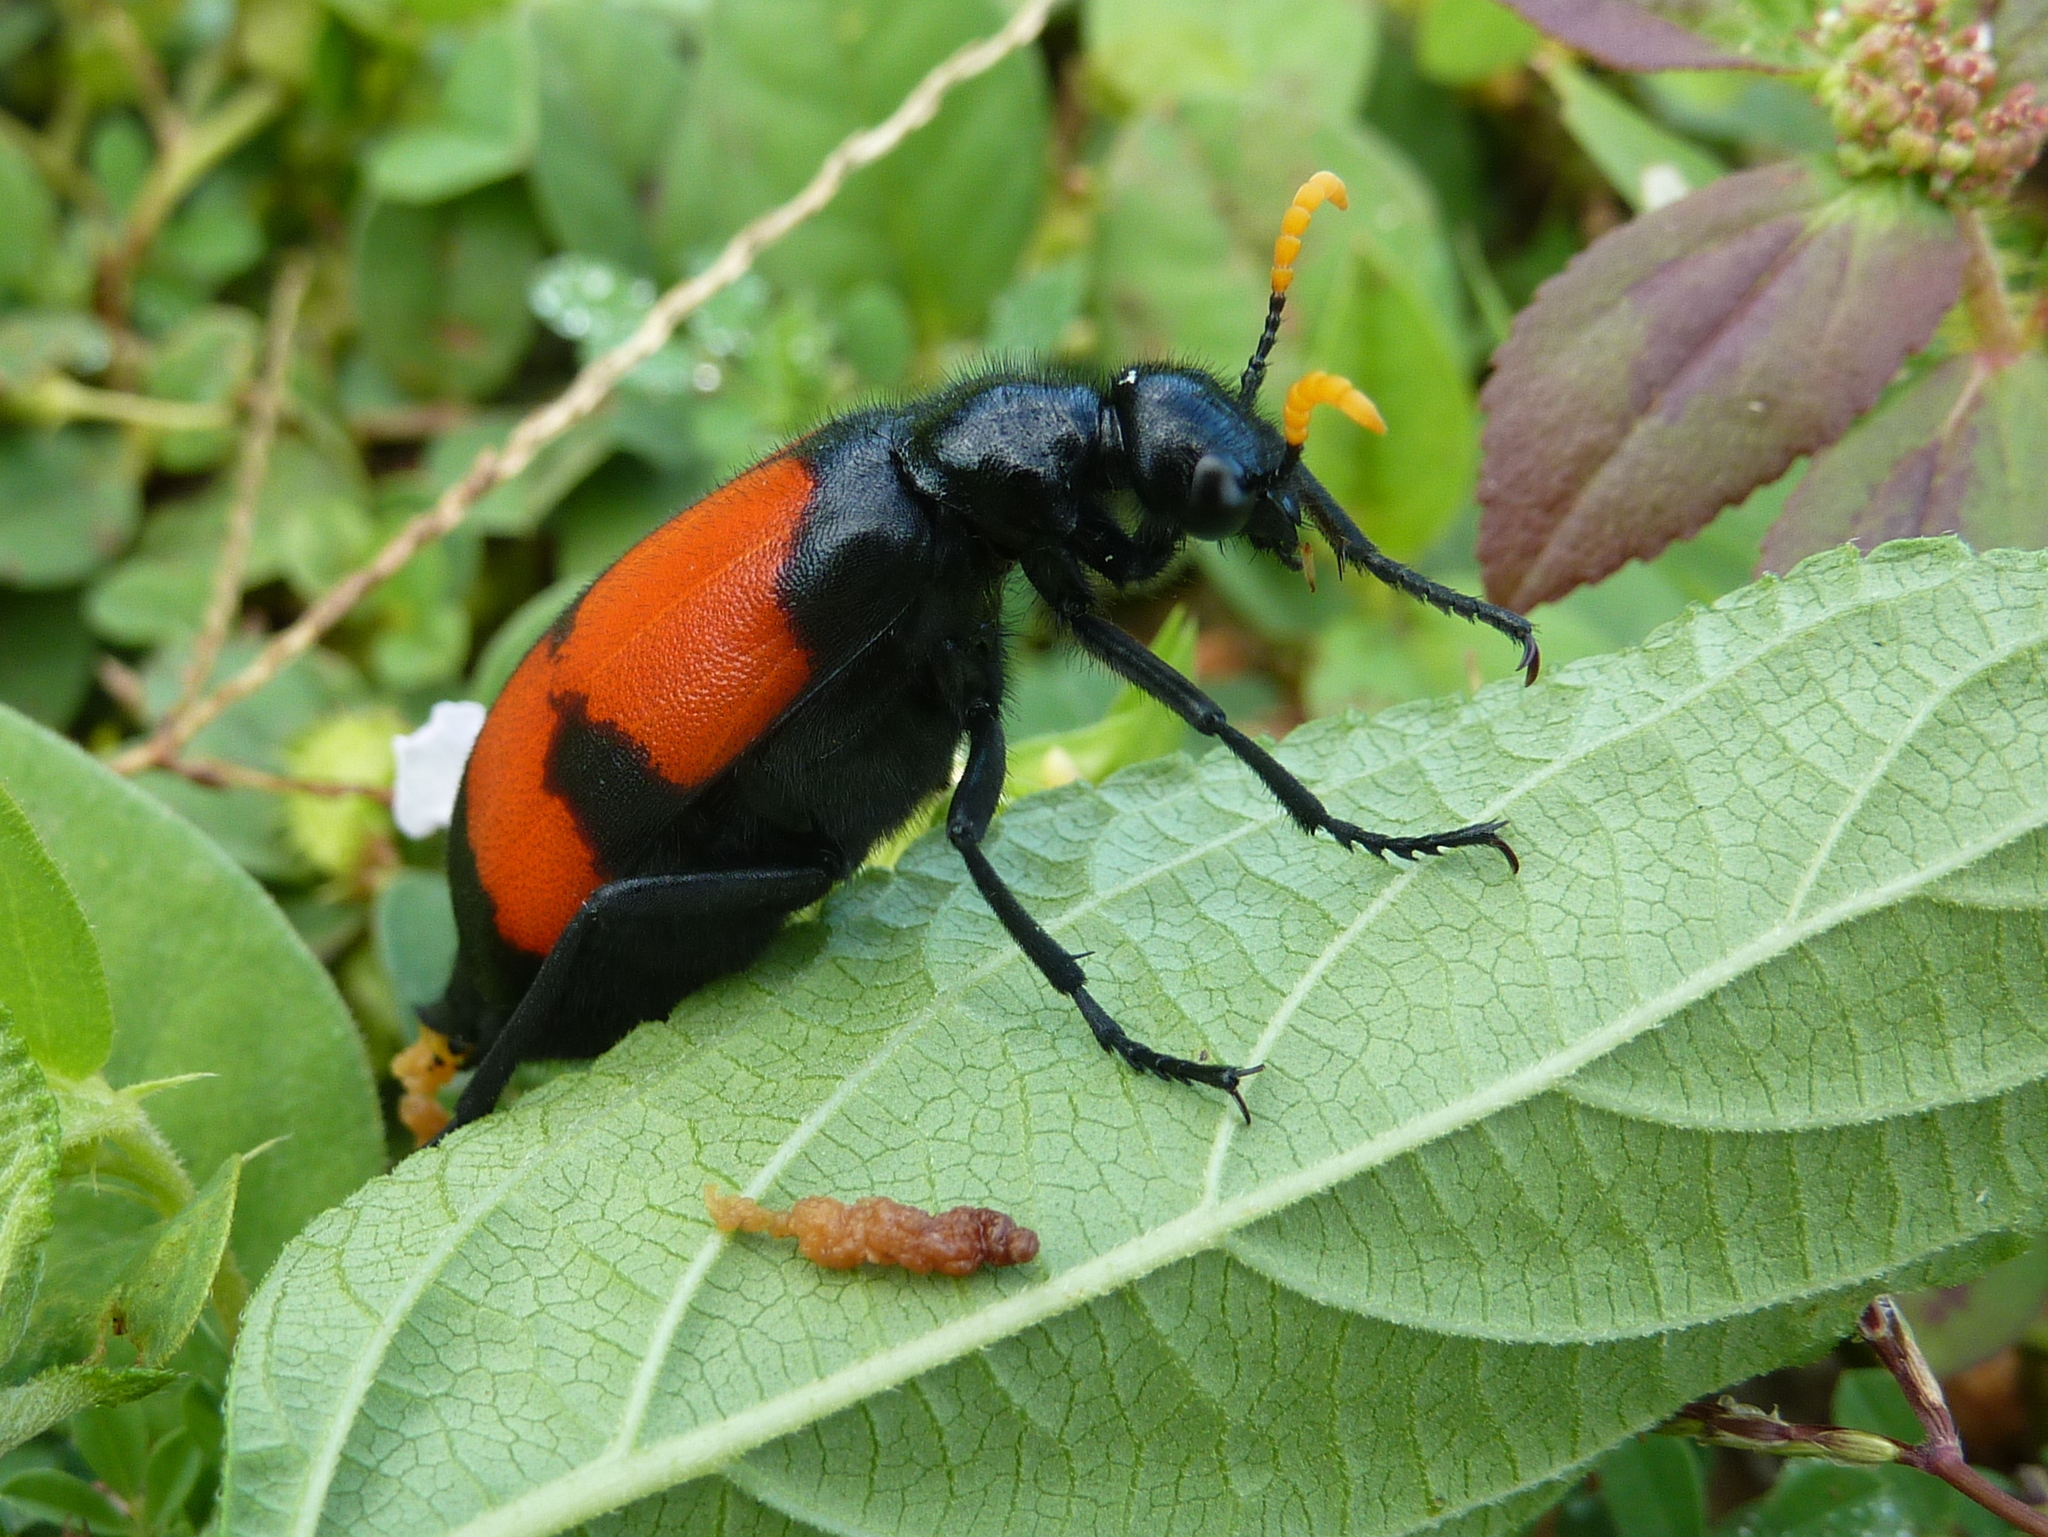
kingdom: Animalia
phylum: Arthropoda
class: Insecta
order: Coleoptera
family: Meloidae
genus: Hycleus
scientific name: Hycleus tekkensis
